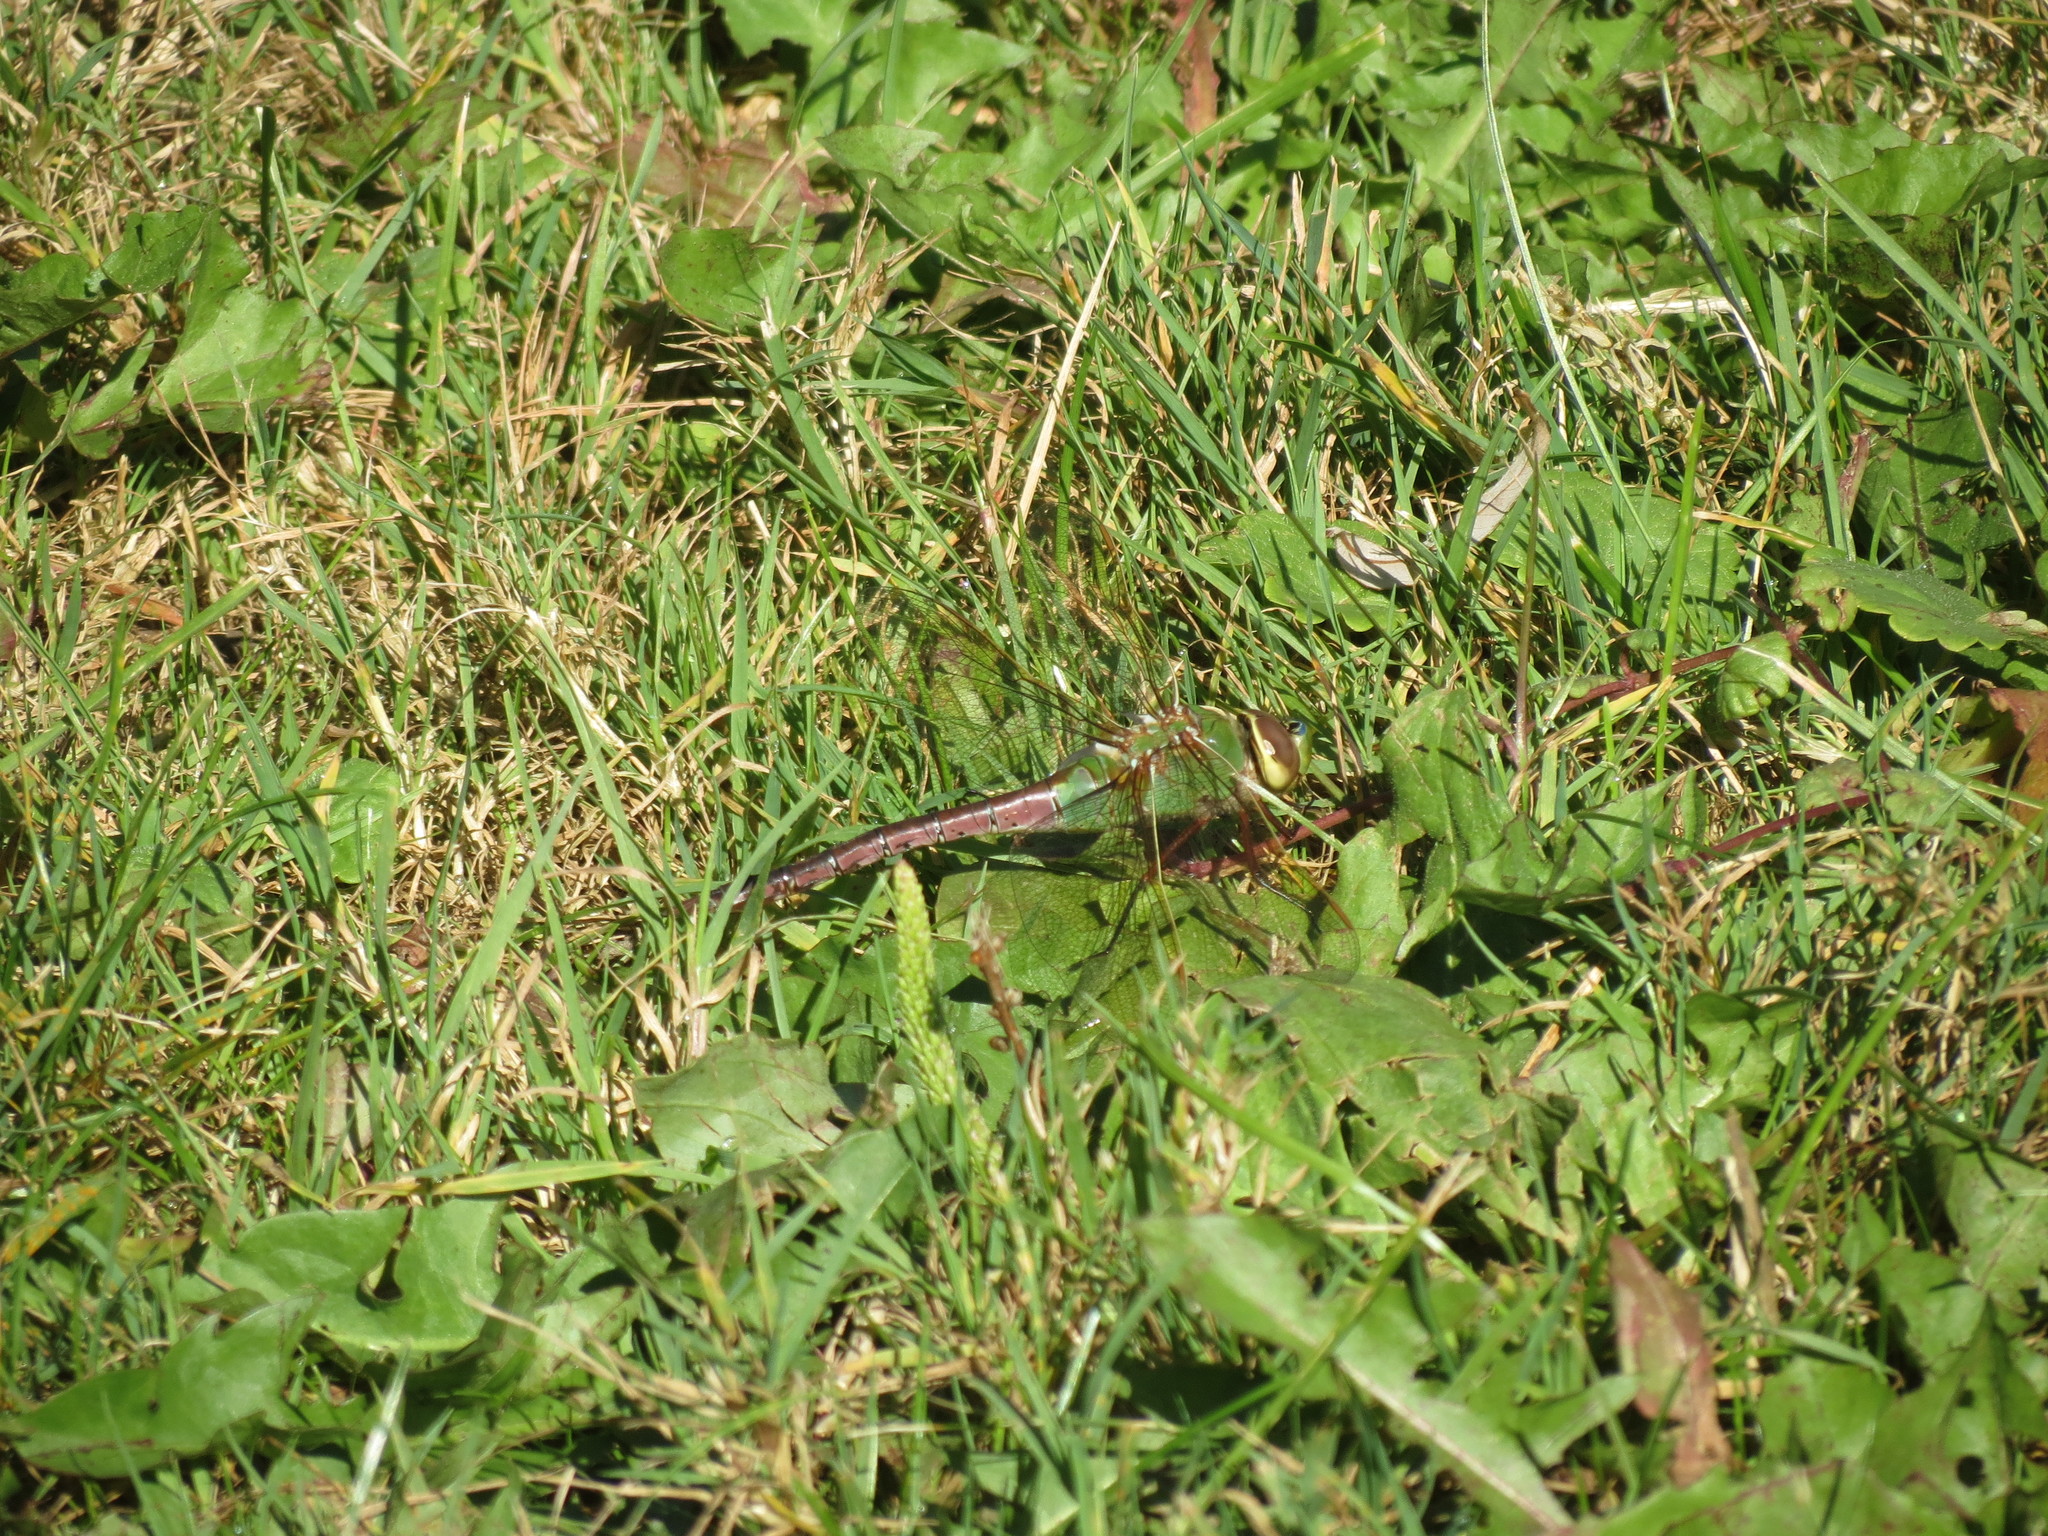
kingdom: Animalia
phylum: Arthropoda
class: Insecta
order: Odonata
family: Aeshnidae
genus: Anax
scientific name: Anax junius
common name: Common green darner
